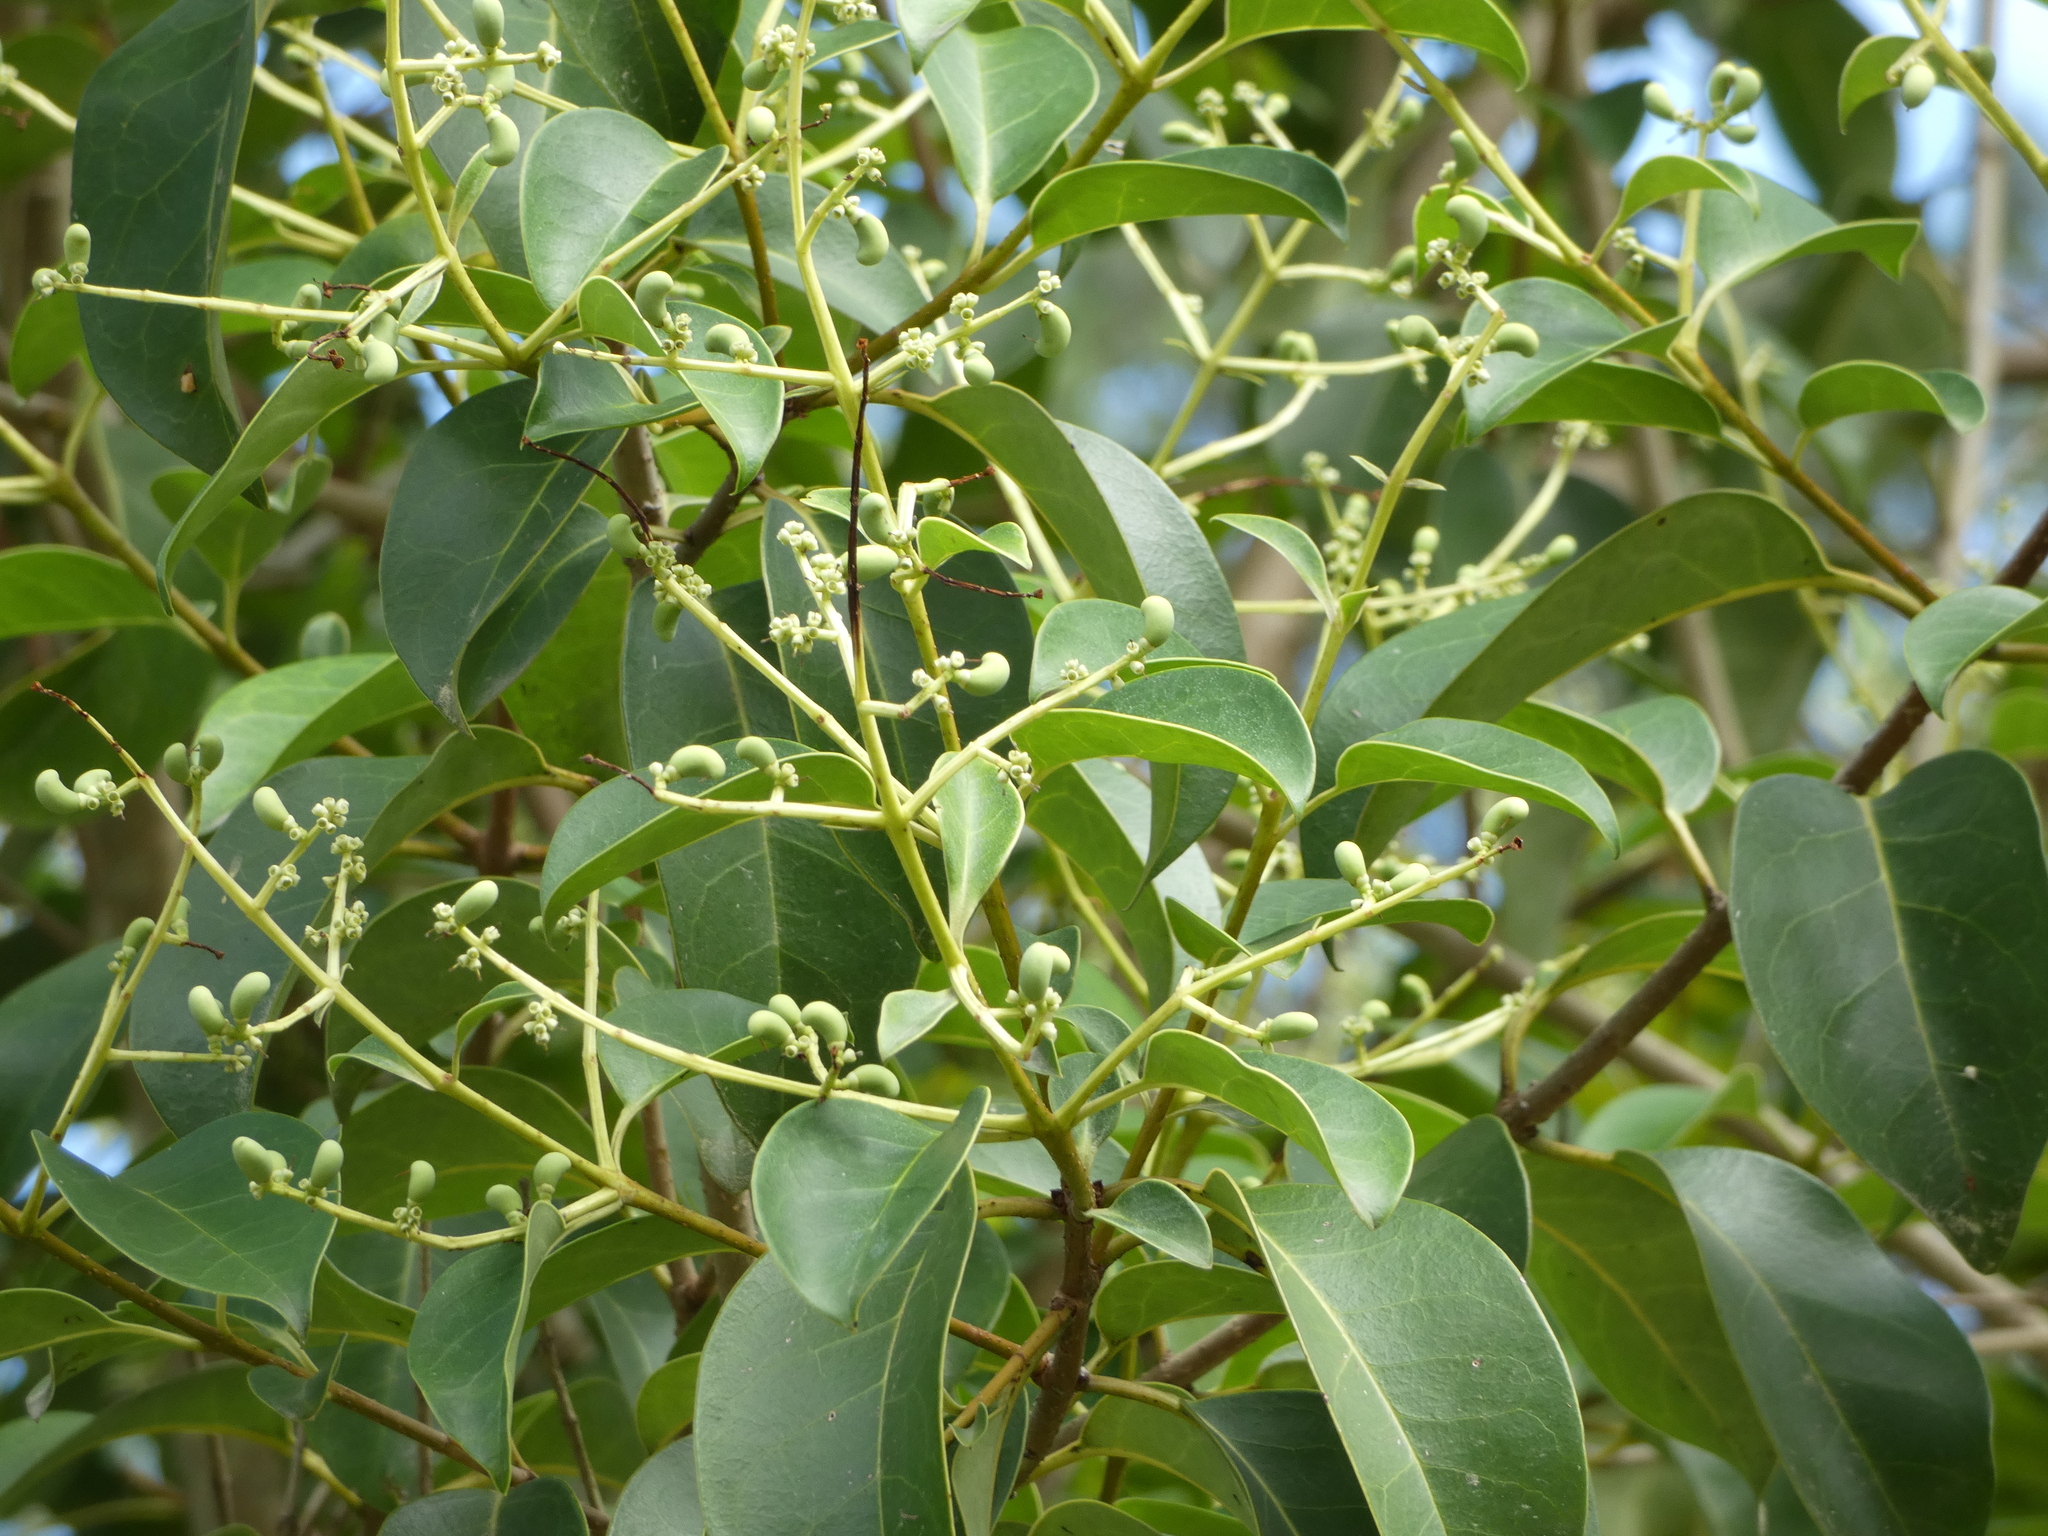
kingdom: Plantae
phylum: Tracheophyta
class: Magnoliopsida
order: Lamiales
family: Oleaceae
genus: Ligustrum
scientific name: Ligustrum lucidum
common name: Glossy privet
